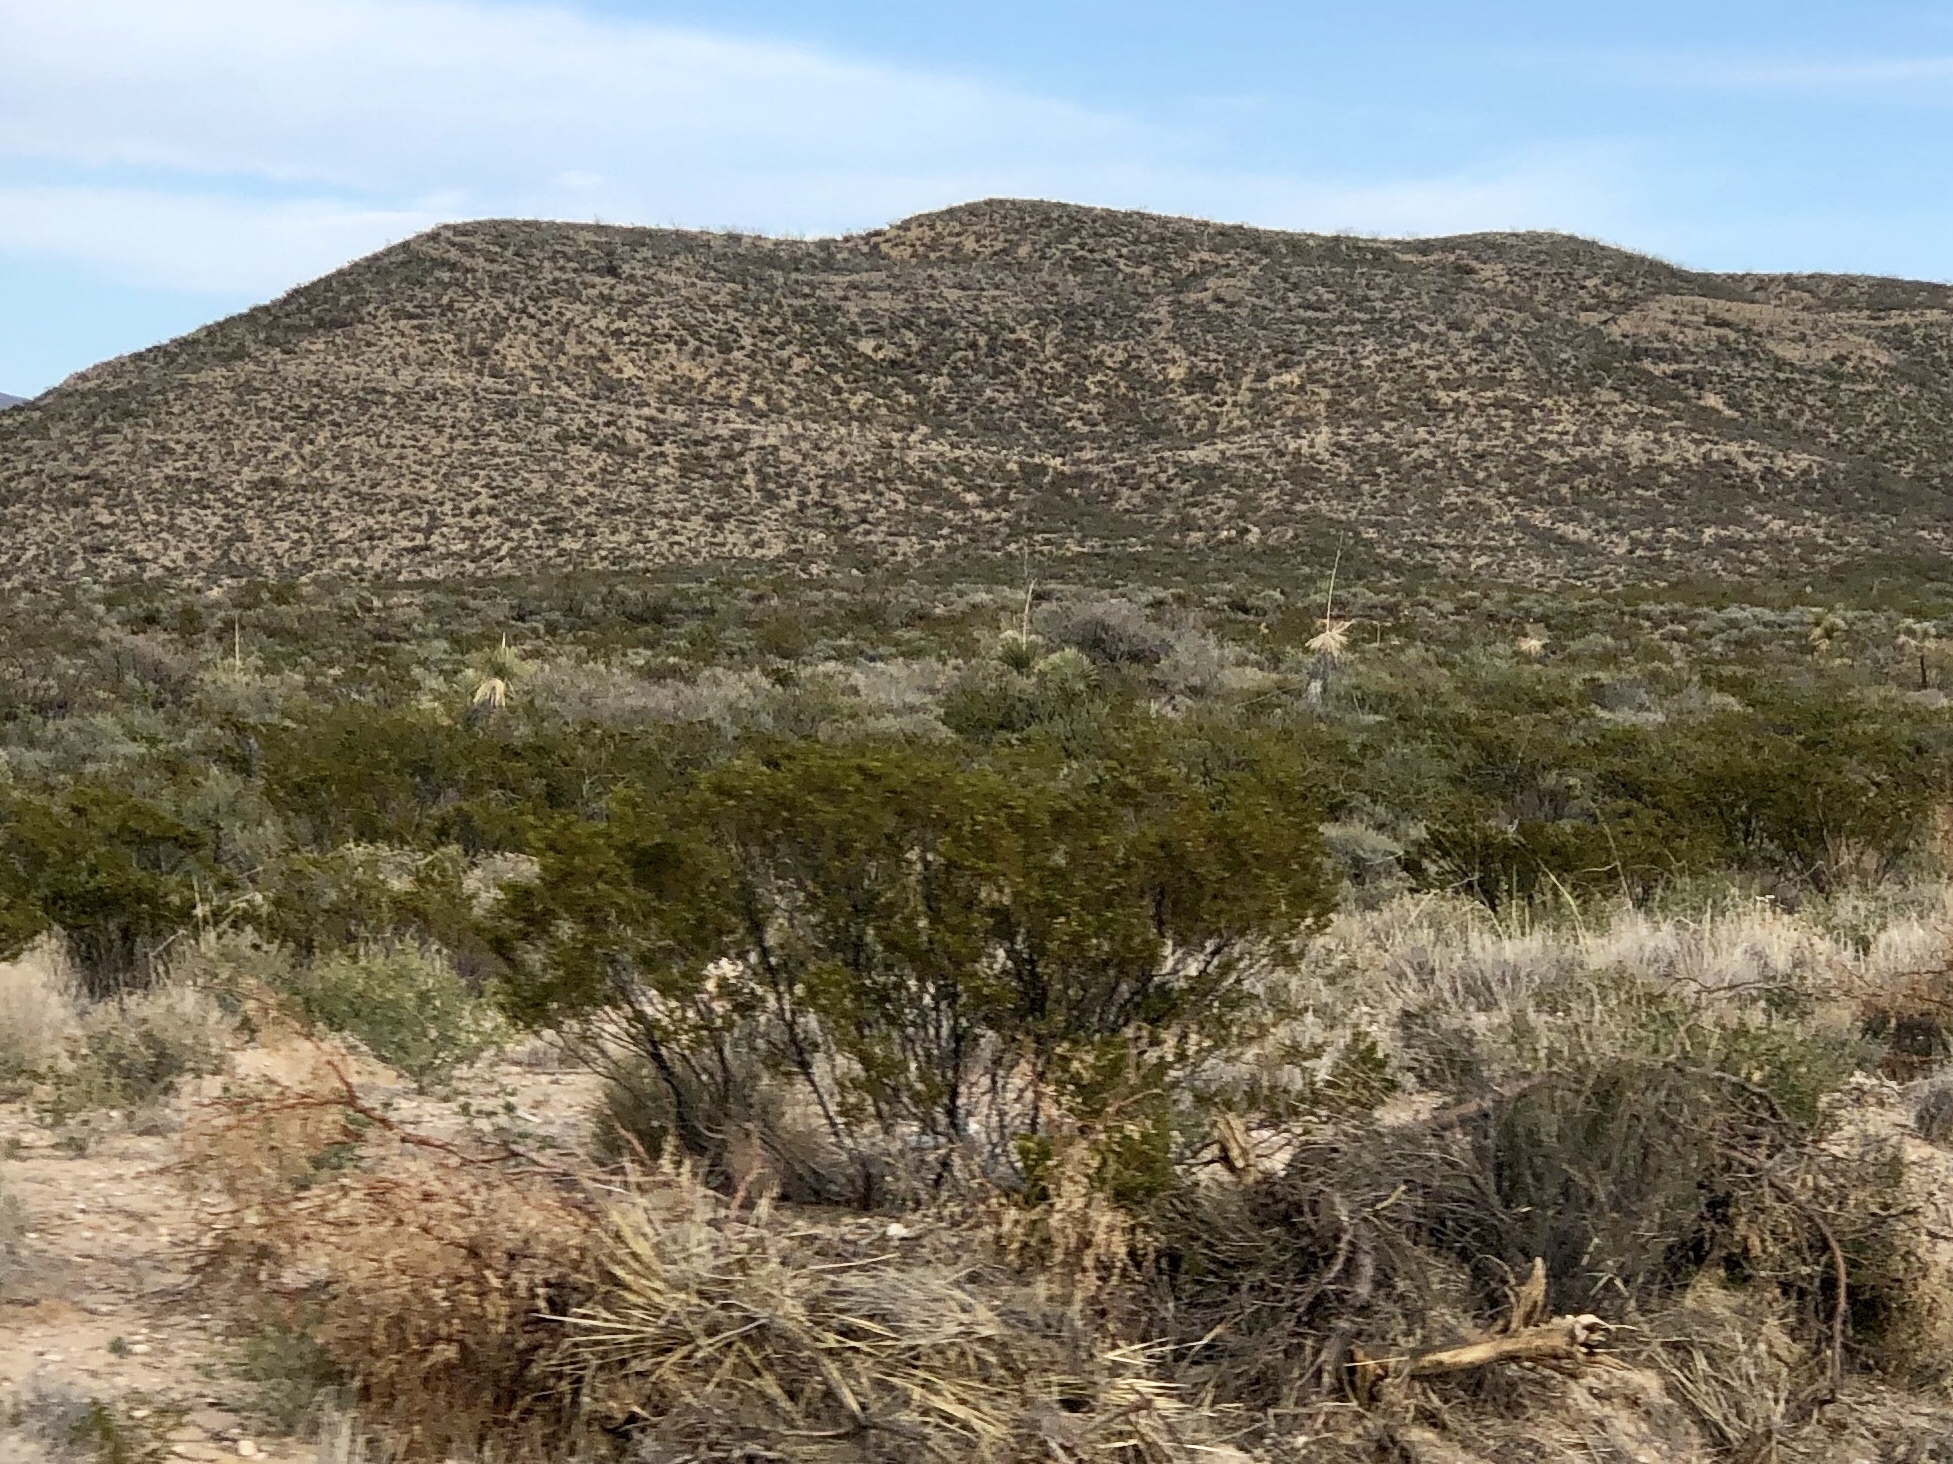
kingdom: Plantae
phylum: Tracheophyta
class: Magnoliopsida
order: Zygophyllales
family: Zygophyllaceae
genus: Larrea
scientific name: Larrea tridentata
